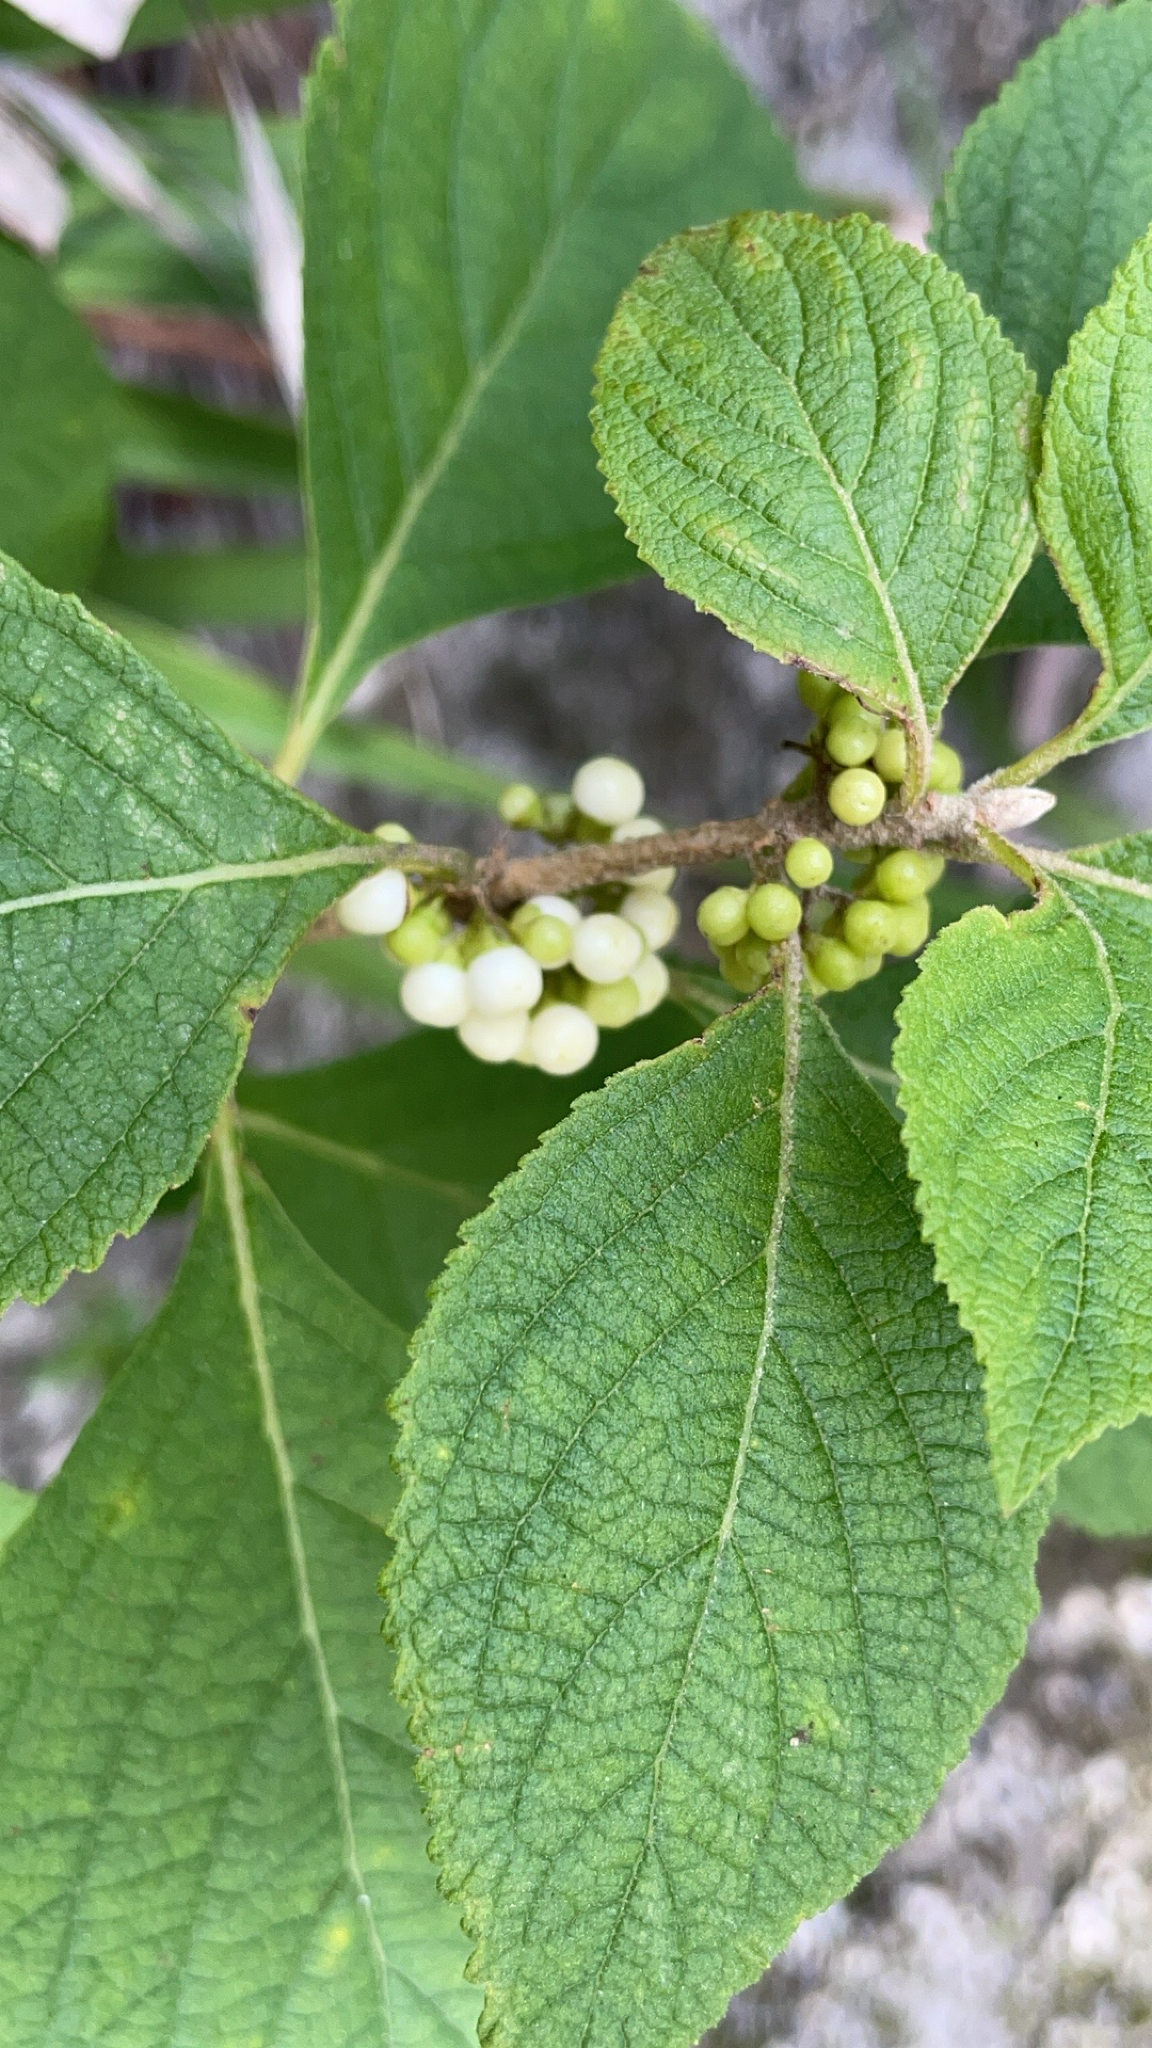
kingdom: Plantae
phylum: Tracheophyta
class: Magnoliopsida
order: Lamiales
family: Lamiaceae
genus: Callicarpa
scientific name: Callicarpa americana
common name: American beautyberry
